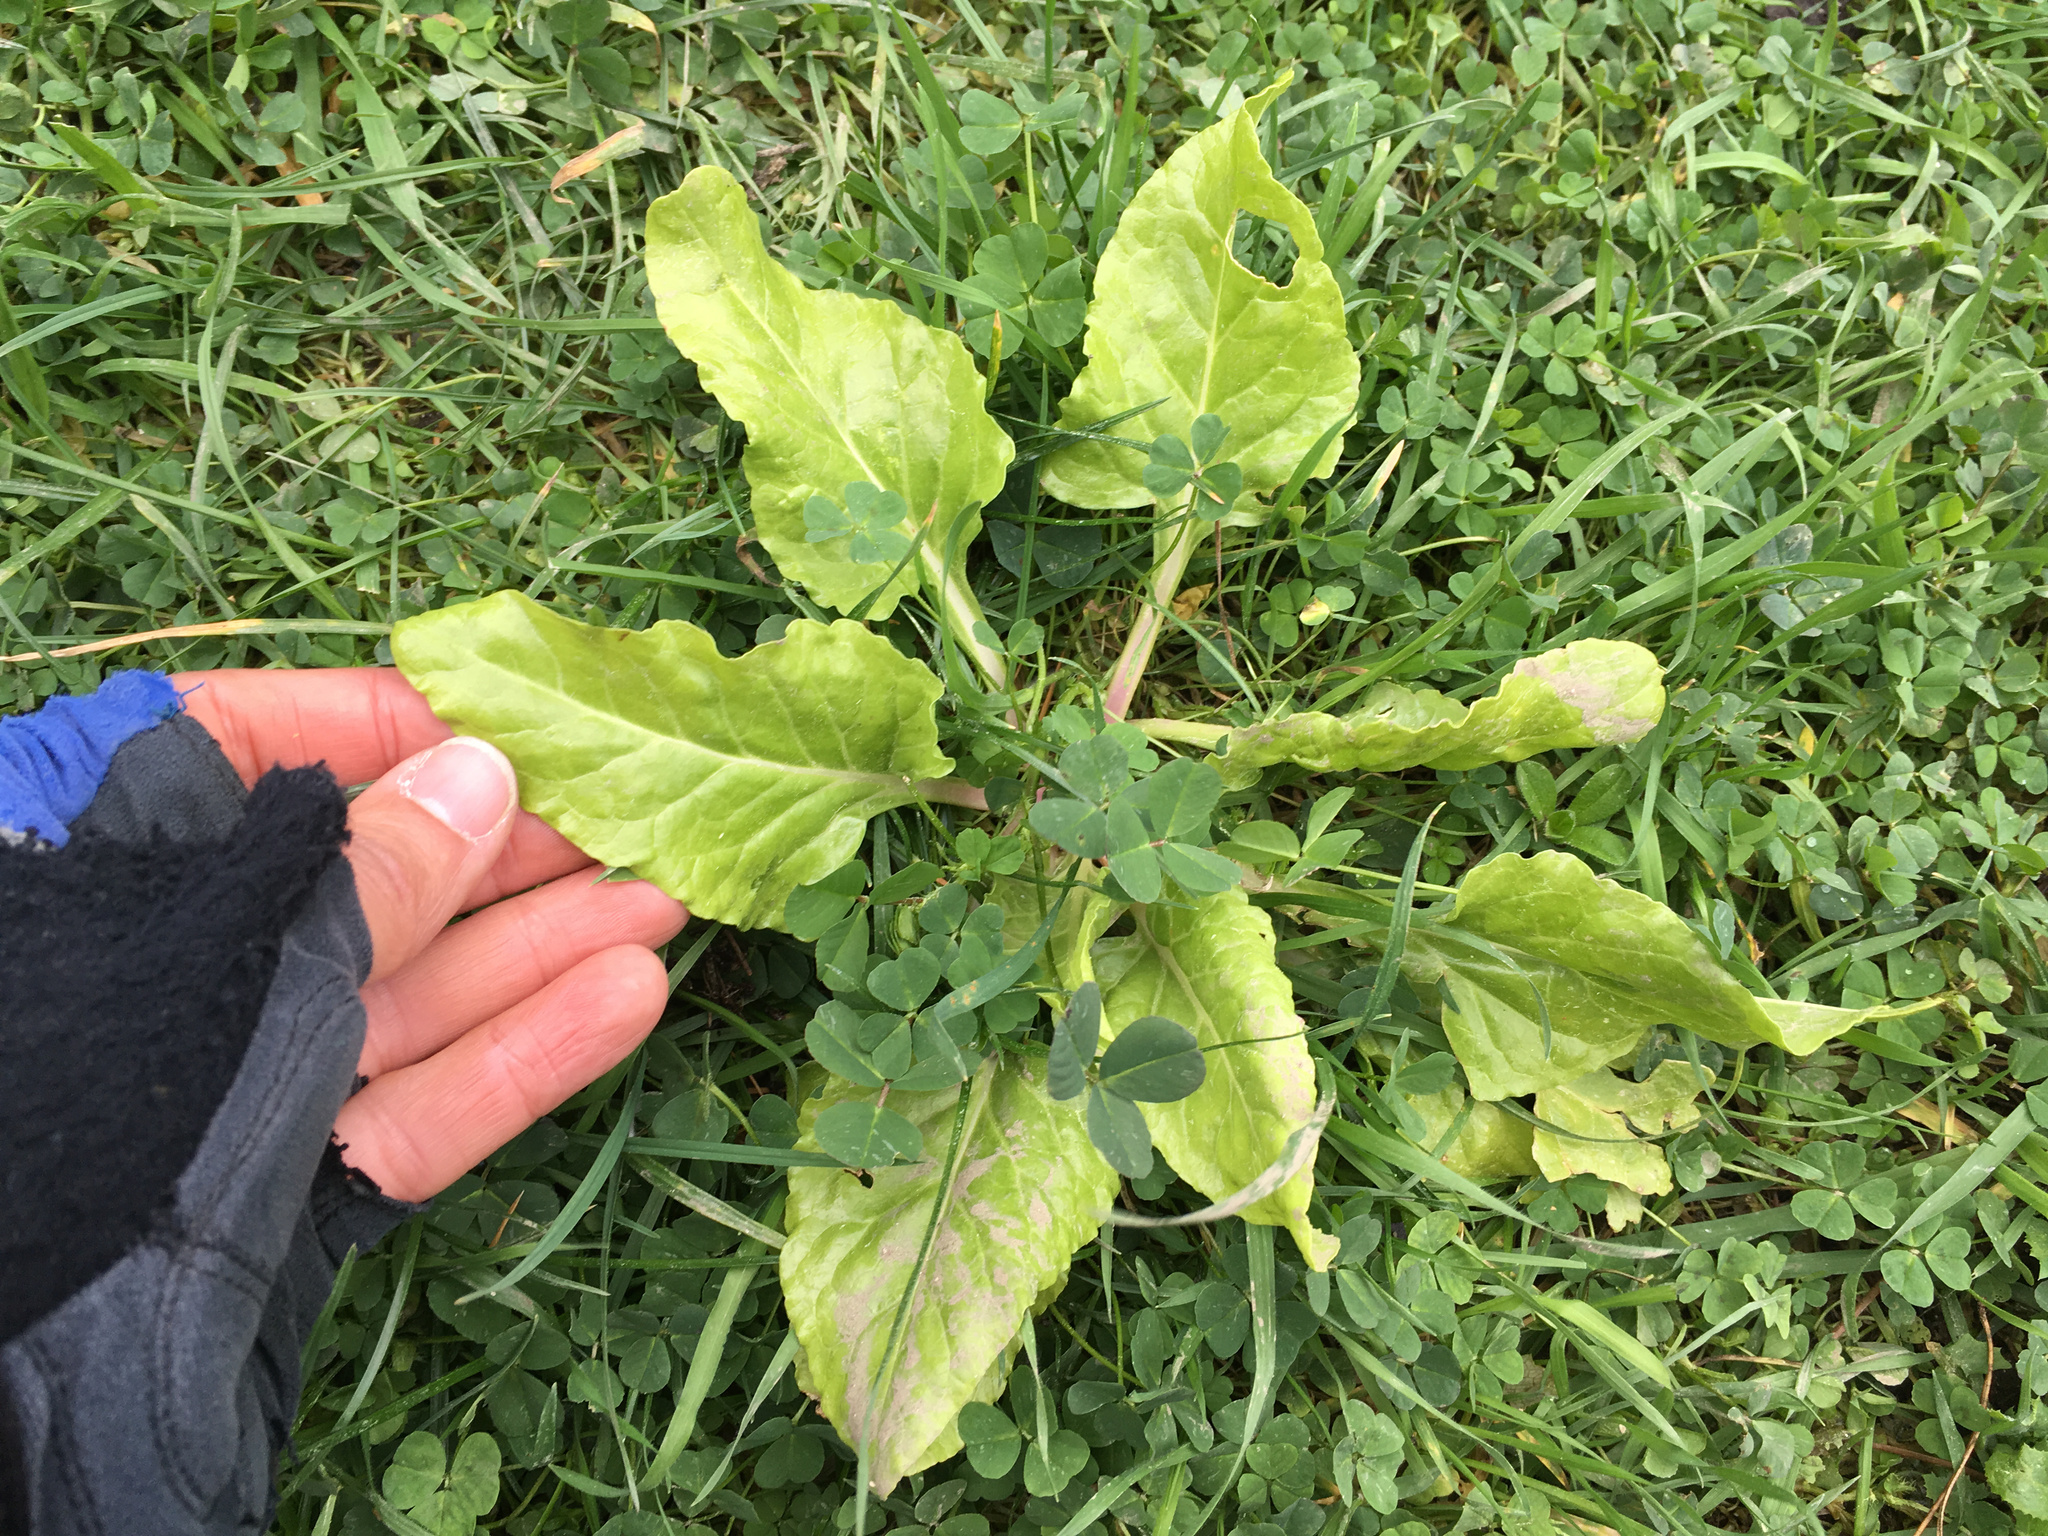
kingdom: Plantae
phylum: Tracheophyta
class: Magnoliopsida
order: Caryophyllales
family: Amaranthaceae
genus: Beta
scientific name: Beta vulgaris
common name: Beet
